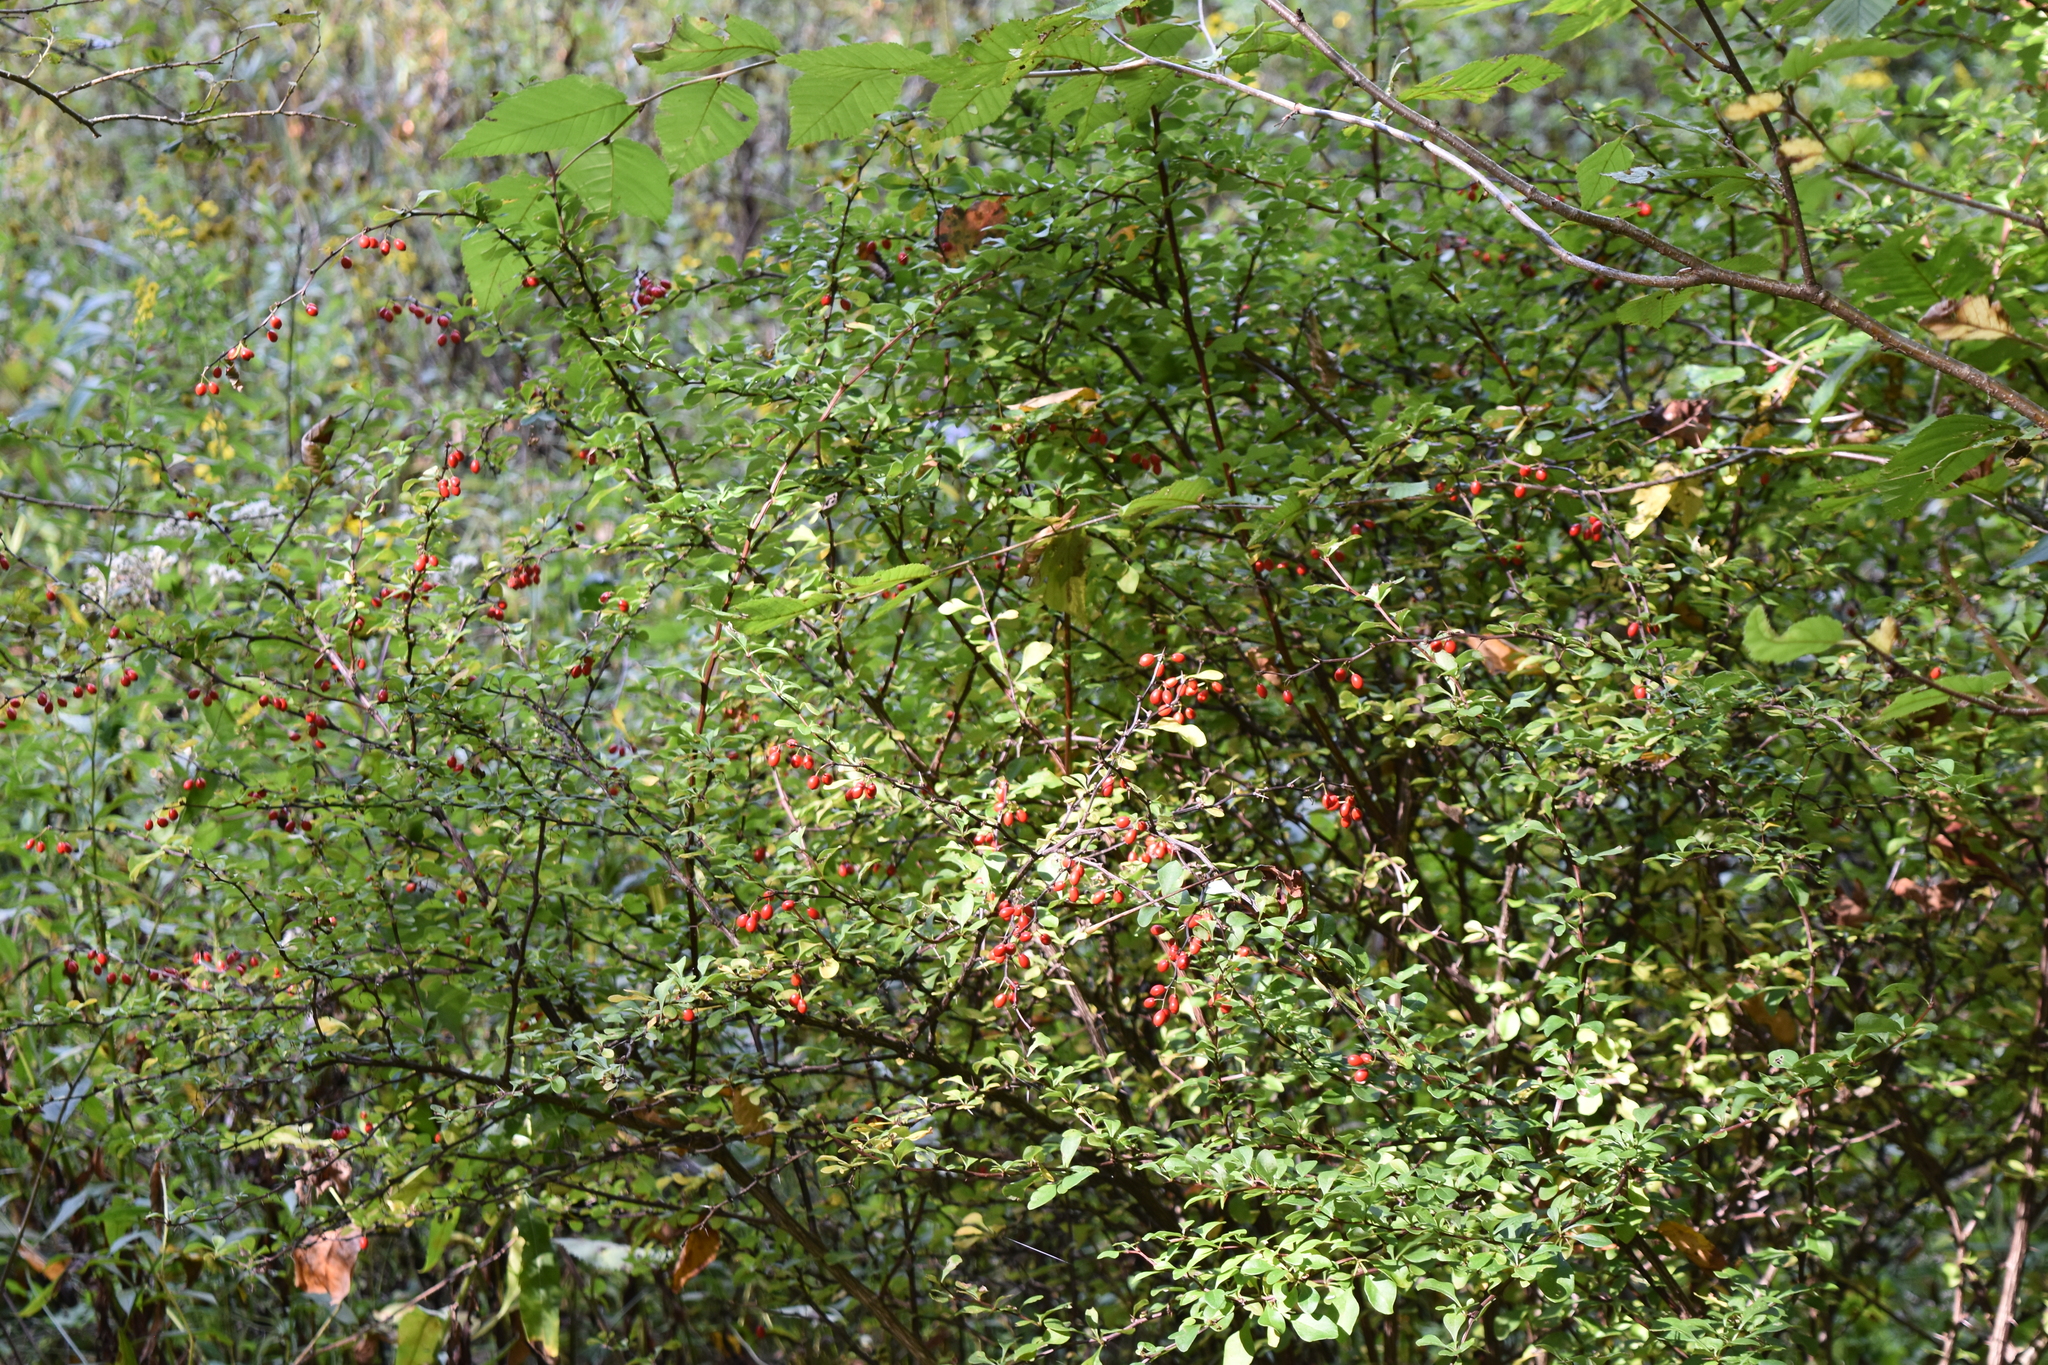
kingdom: Plantae
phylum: Tracheophyta
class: Magnoliopsida
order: Ranunculales
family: Berberidaceae
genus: Berberis
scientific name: Berberis thunbergii
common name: Japanese barberry
